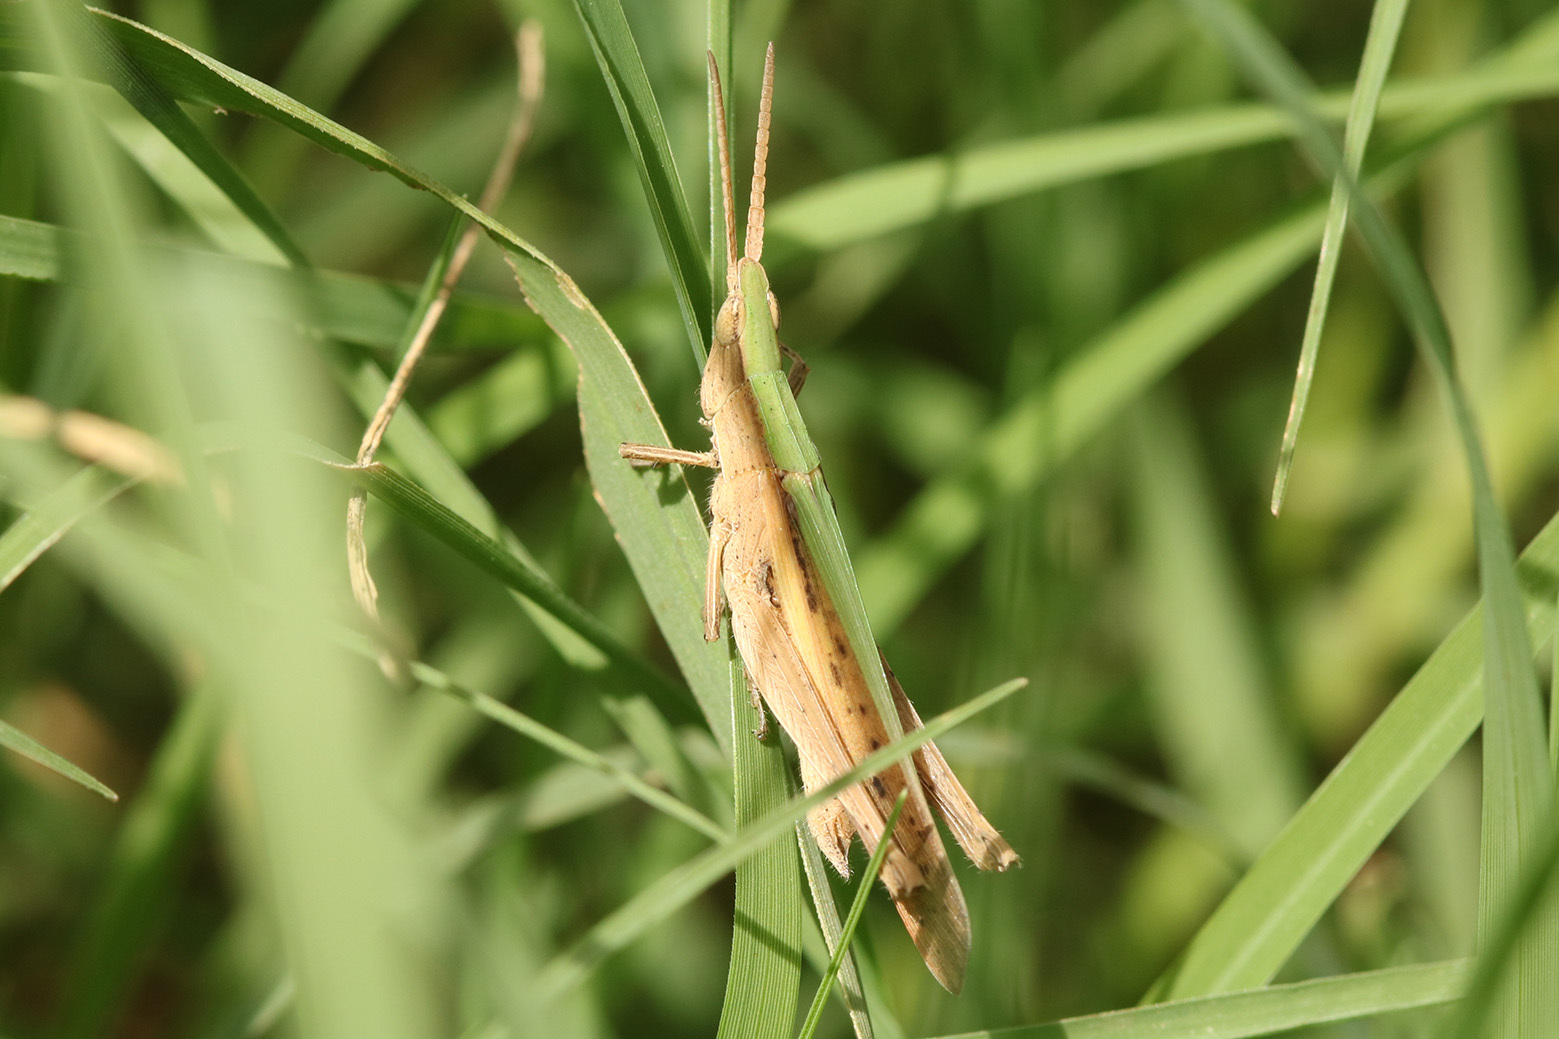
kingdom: Animalia
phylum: Arthropoda
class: Insecta
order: Orthoptera
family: Acrididae
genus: Allotruxalis
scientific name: Allotruxalis gracilis
